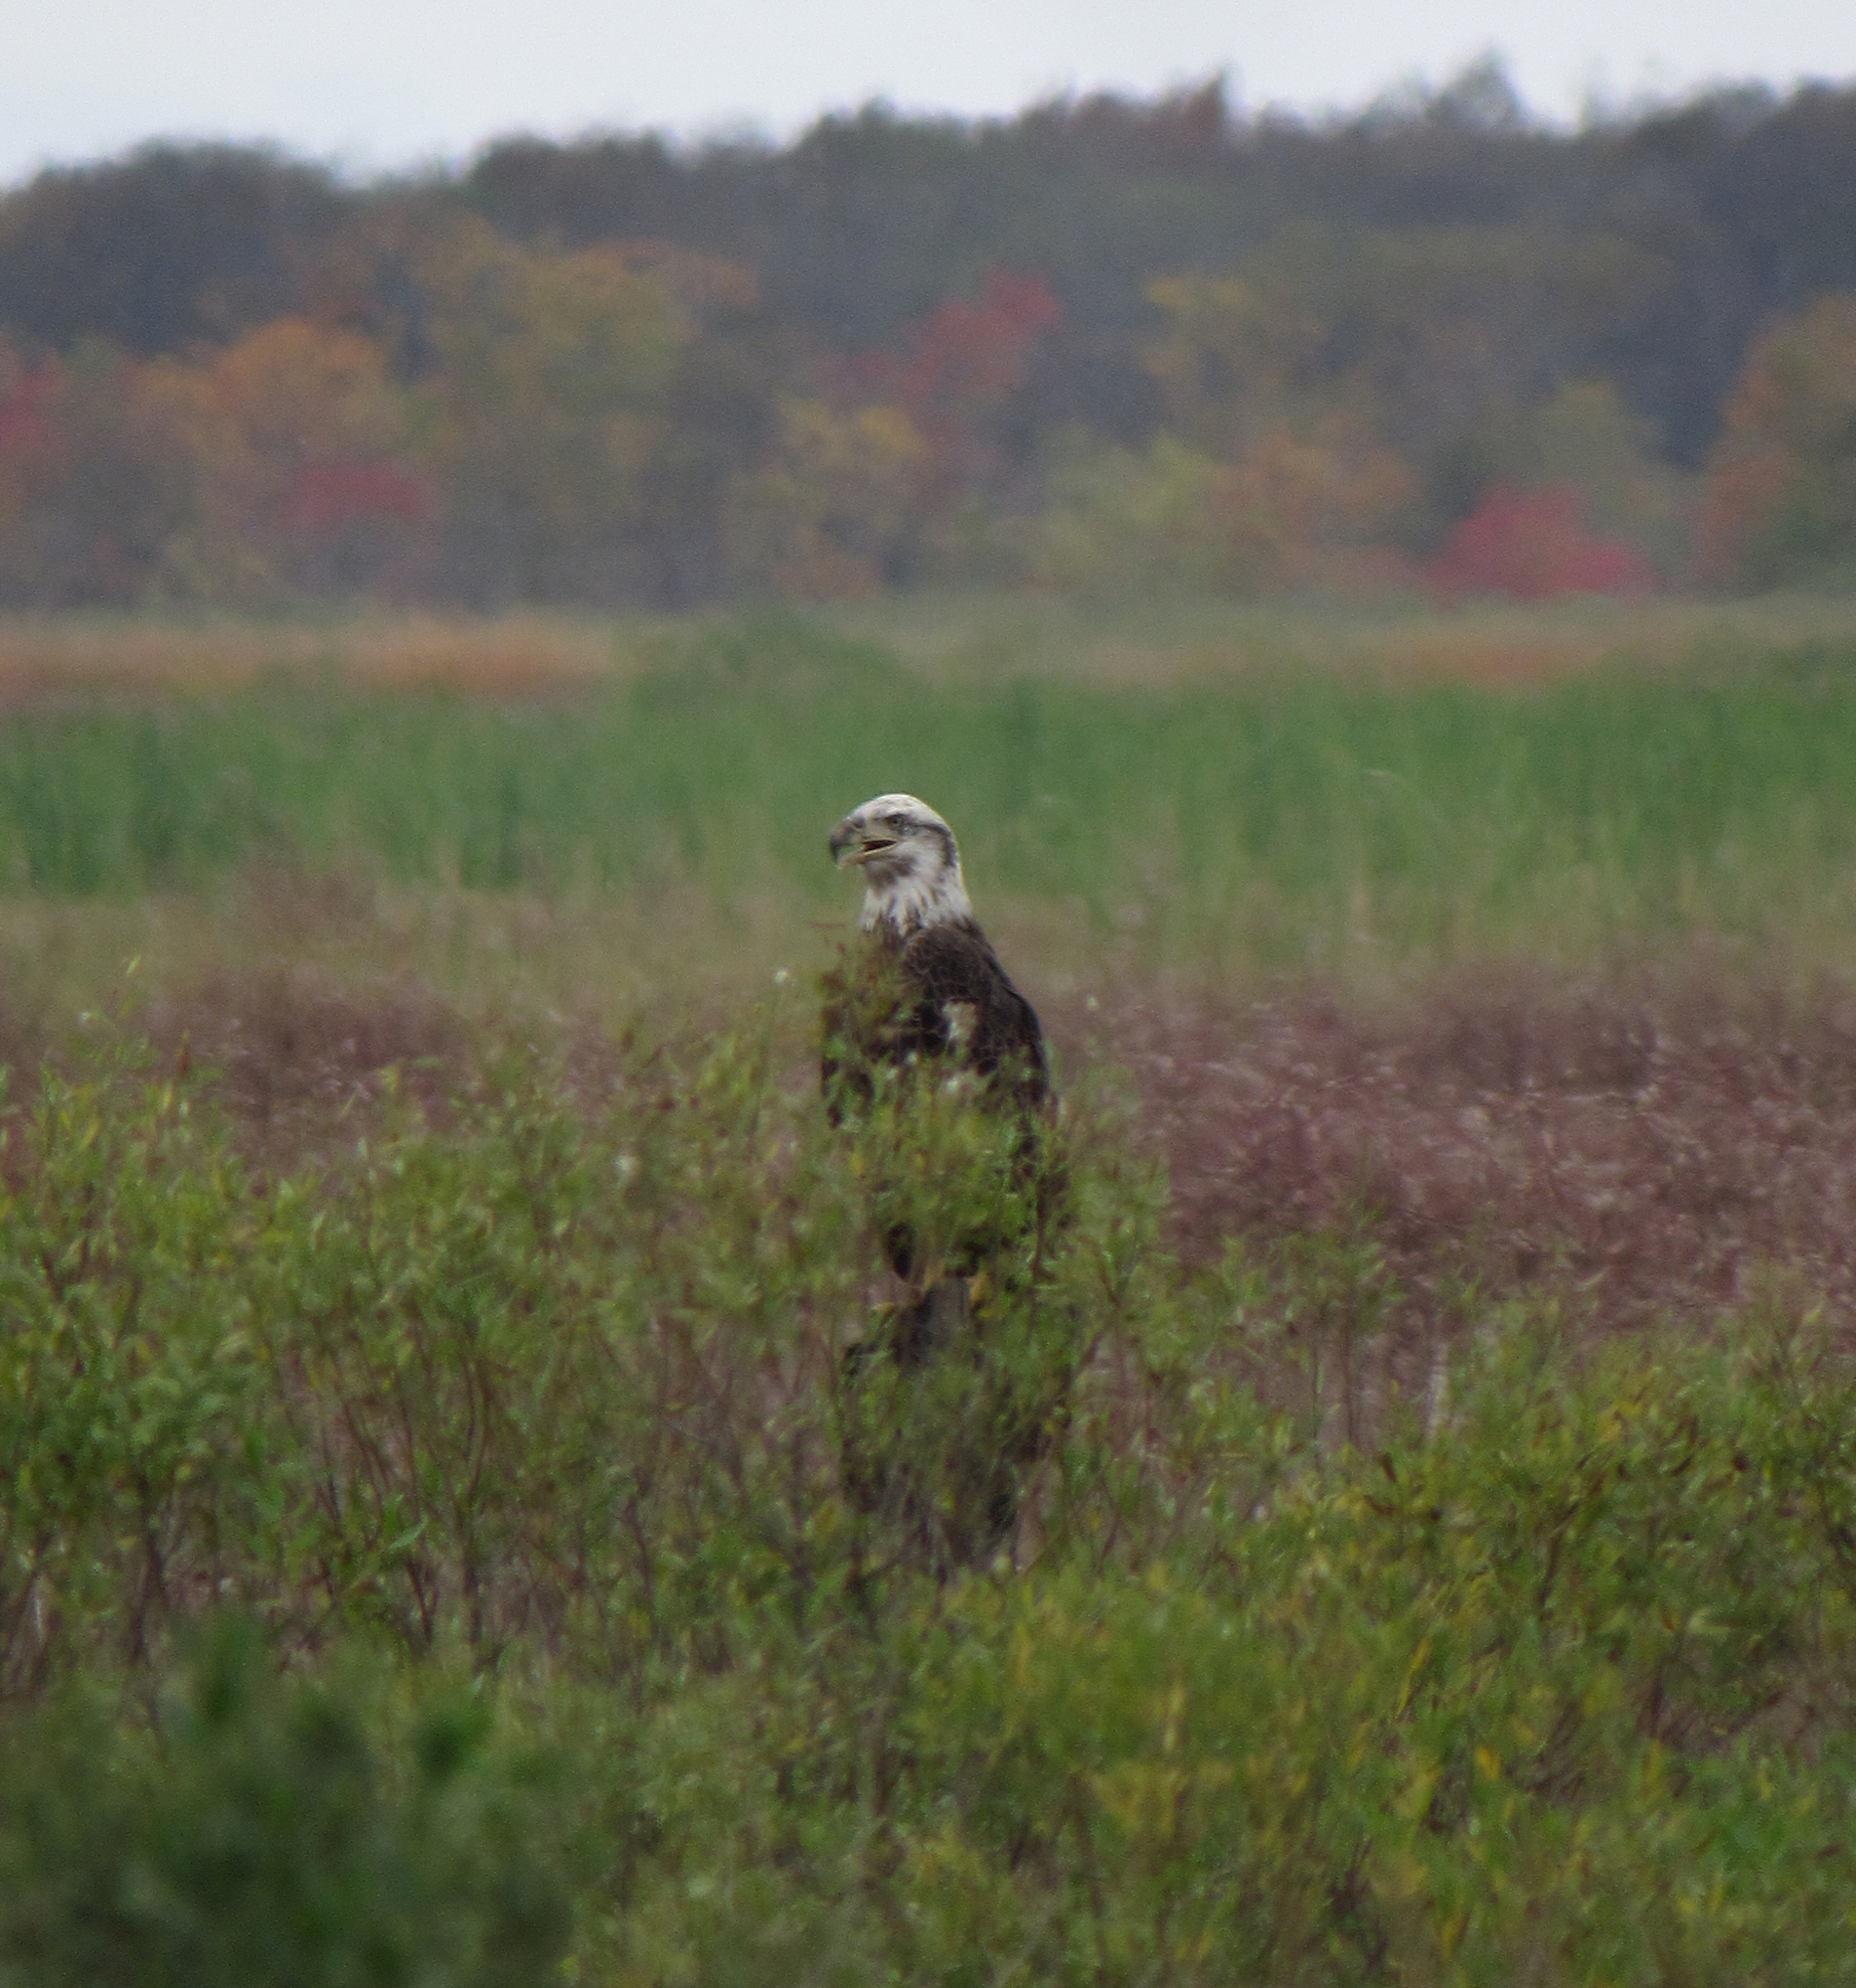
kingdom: Animalia
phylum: Chordata
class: Aves
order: Accipitriformes
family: Accipitridae
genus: Haliaeetus
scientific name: Haliaeetus leucocephalus
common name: Bald eagle
